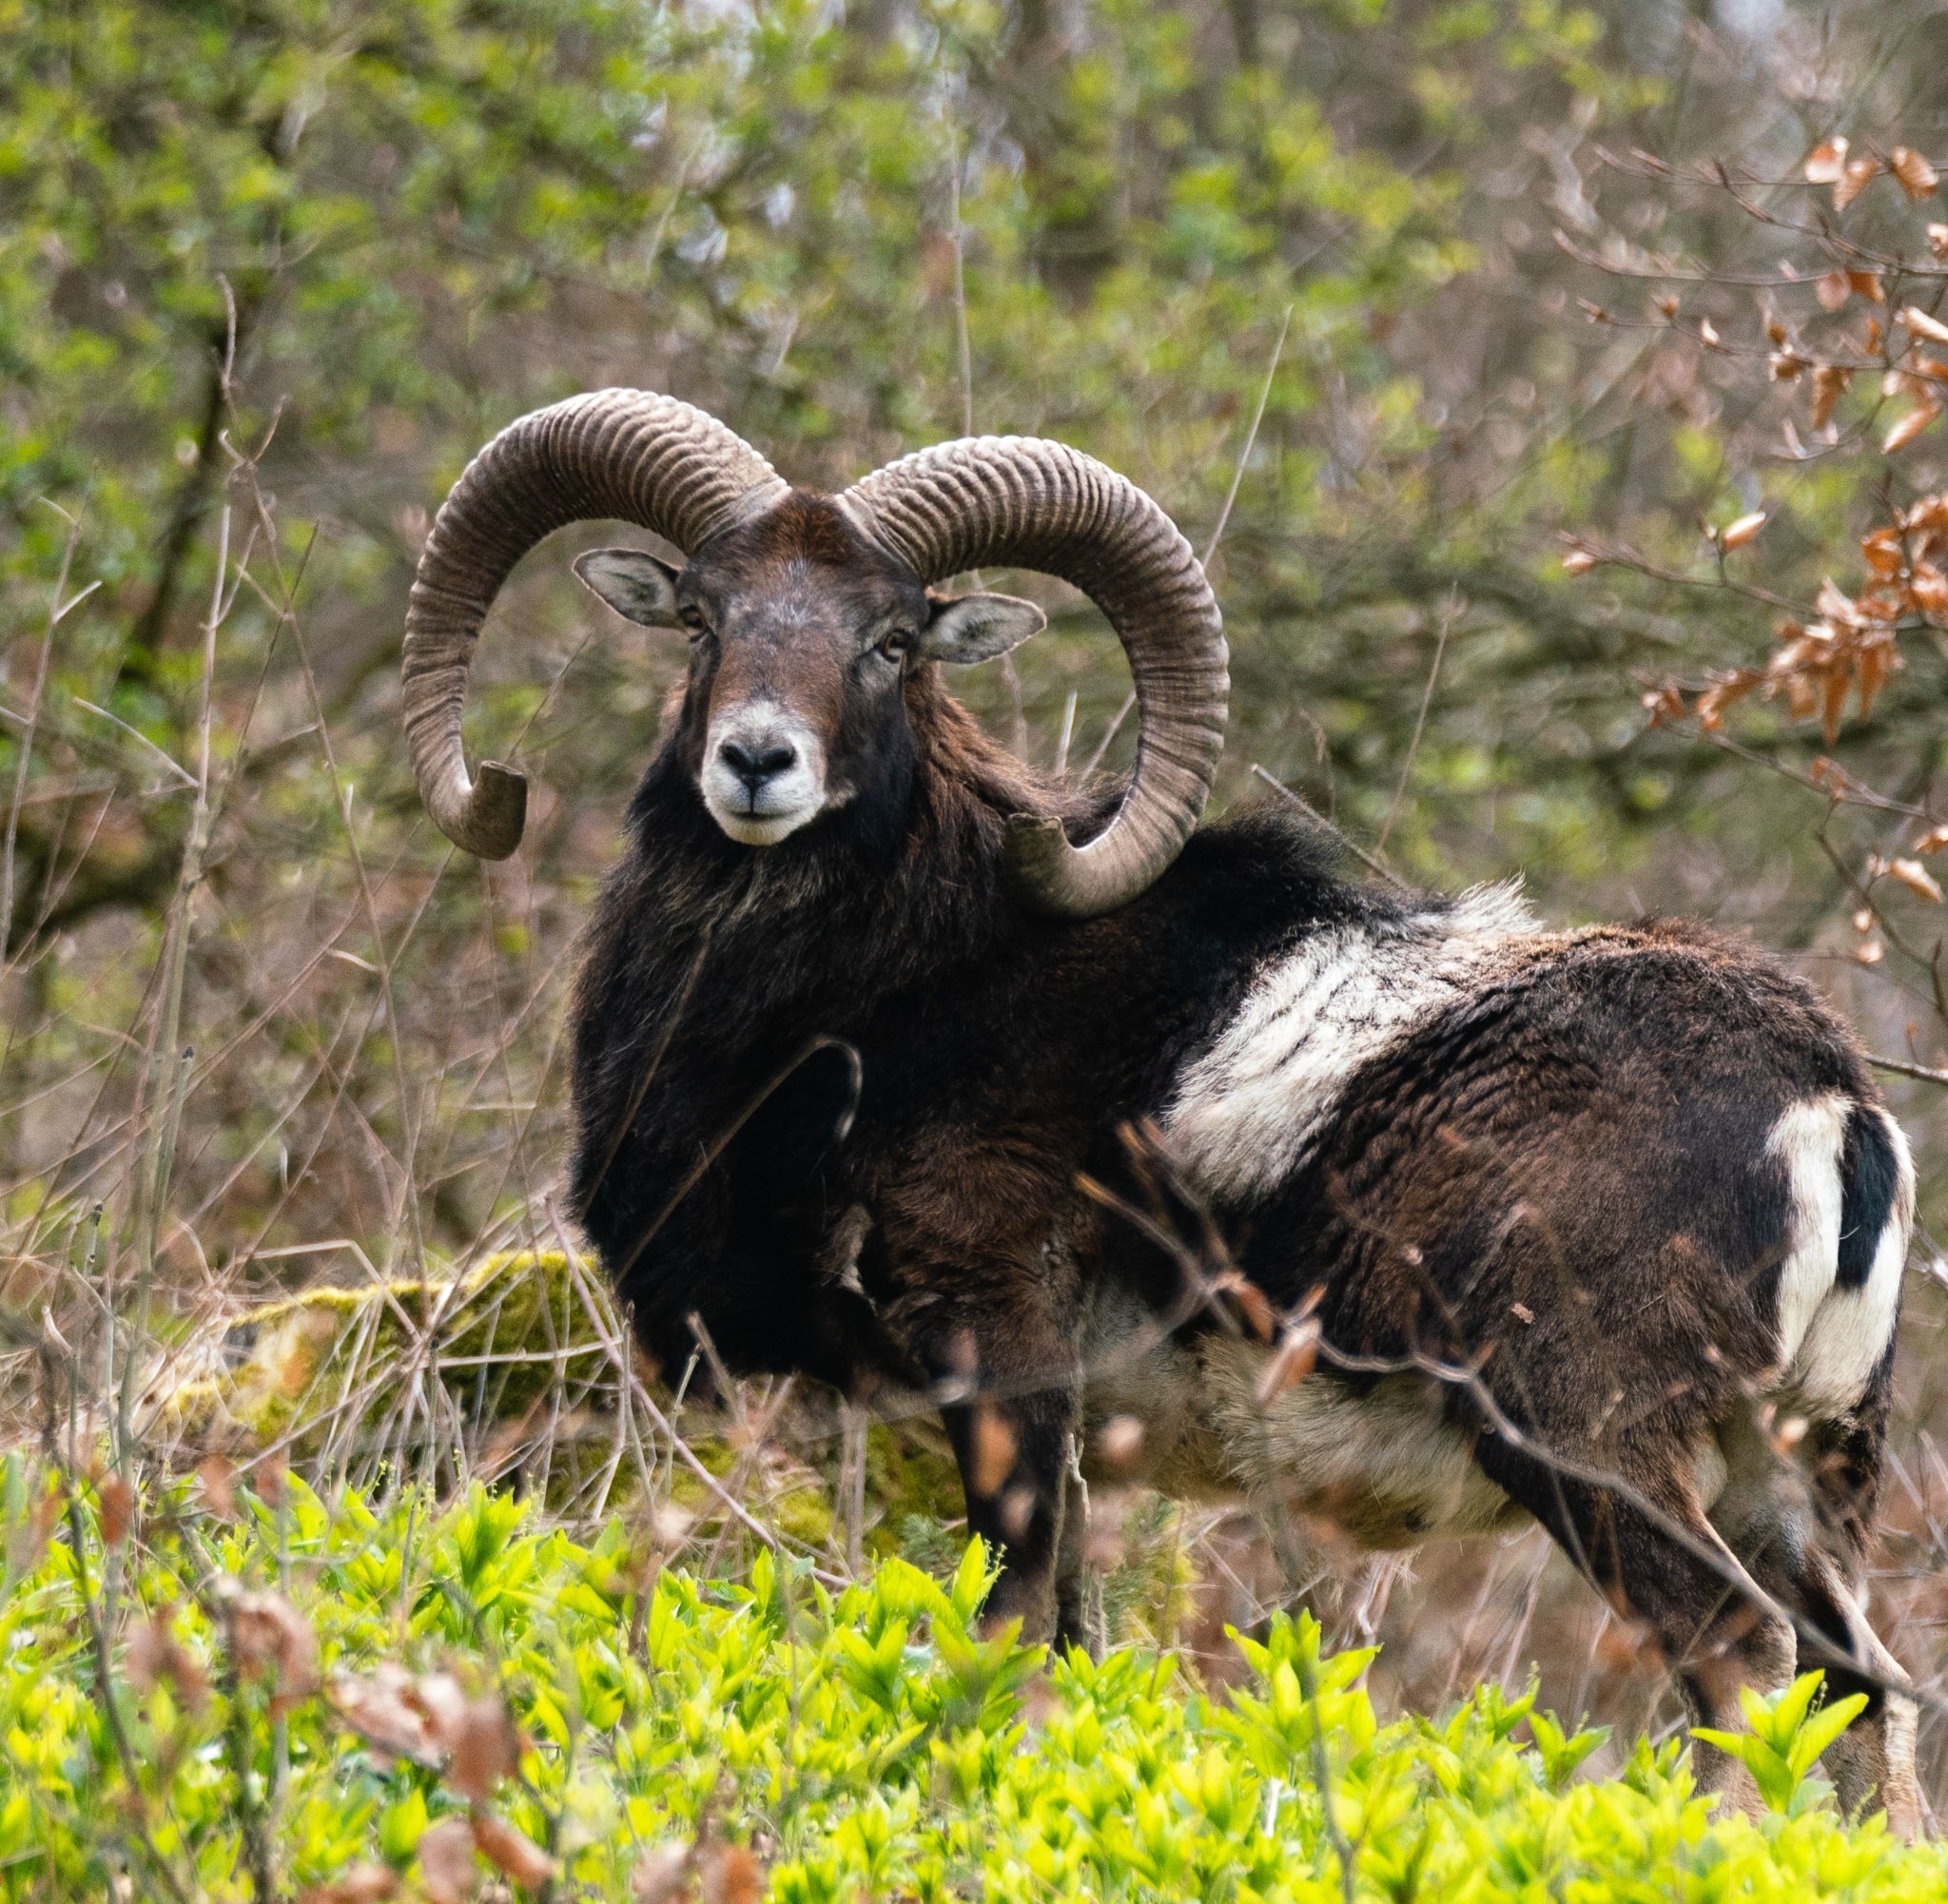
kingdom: Animalia
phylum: Chordata
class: Mammalia
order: Artiodactyla
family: Bovidae
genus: Ovis
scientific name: Ovis aries
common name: Domestic sheep
